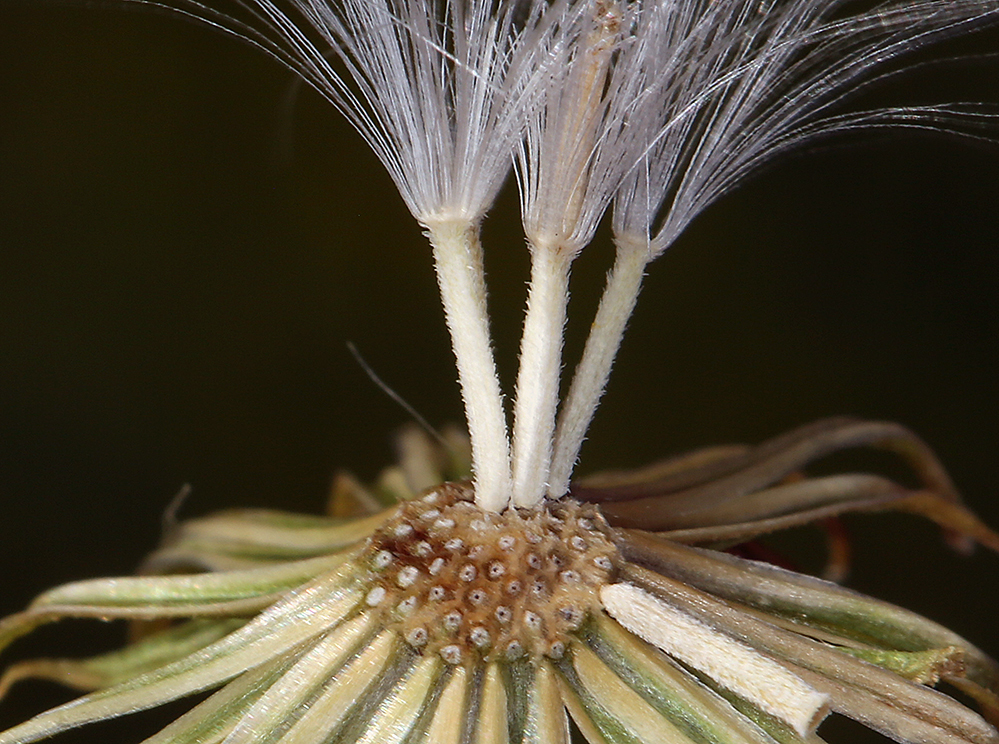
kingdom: Plantae
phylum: Tracheophyta
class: Magnoliopsida
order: Asterales
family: Asteraceae
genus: Senecio
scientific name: Senecio flaccidus
